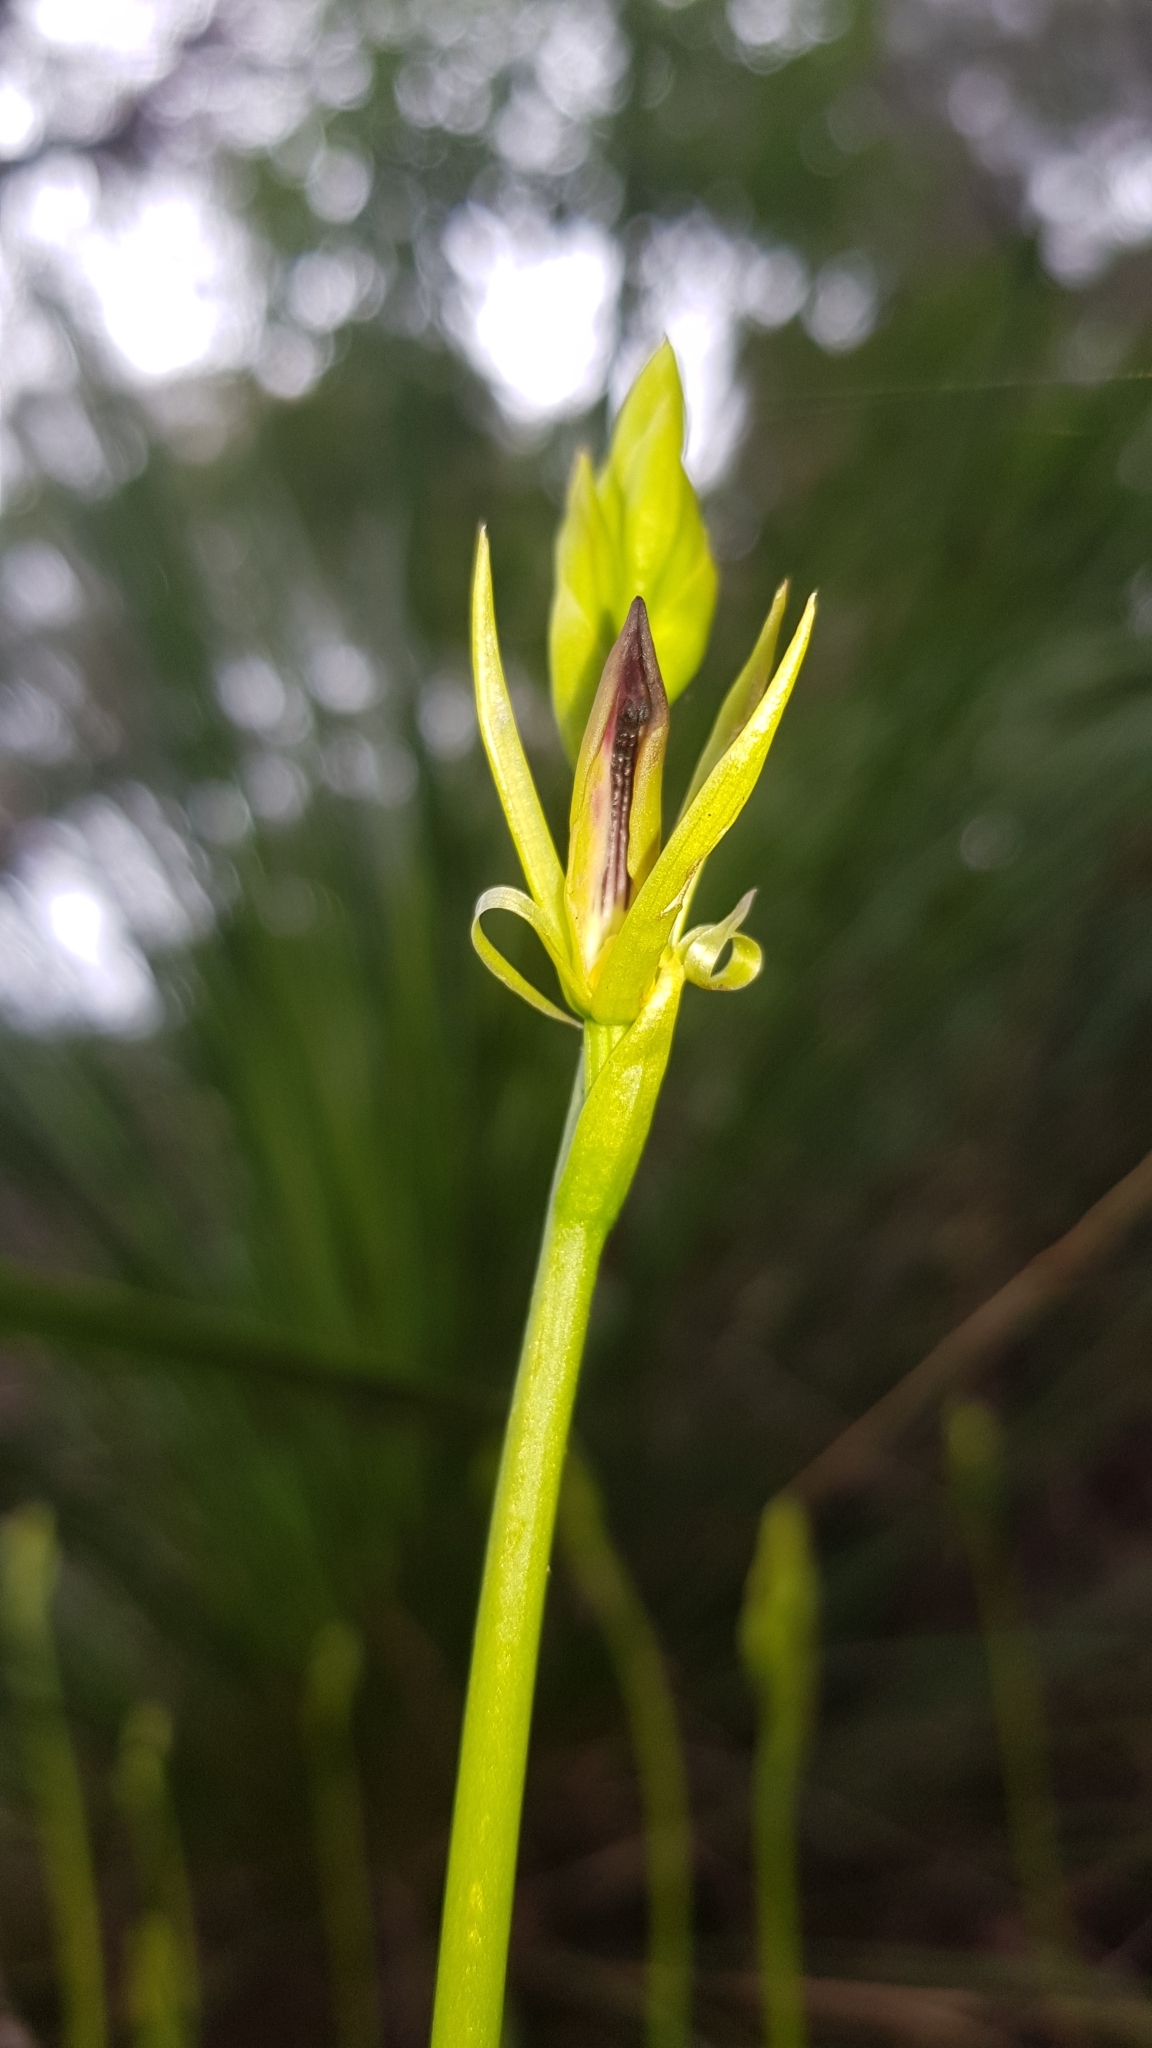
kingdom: Plantae
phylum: Tracheophyta
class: Liliopsida
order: Asparagales
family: Orchidaceae
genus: Cryptostylis
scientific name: Cryptostylis subulata
